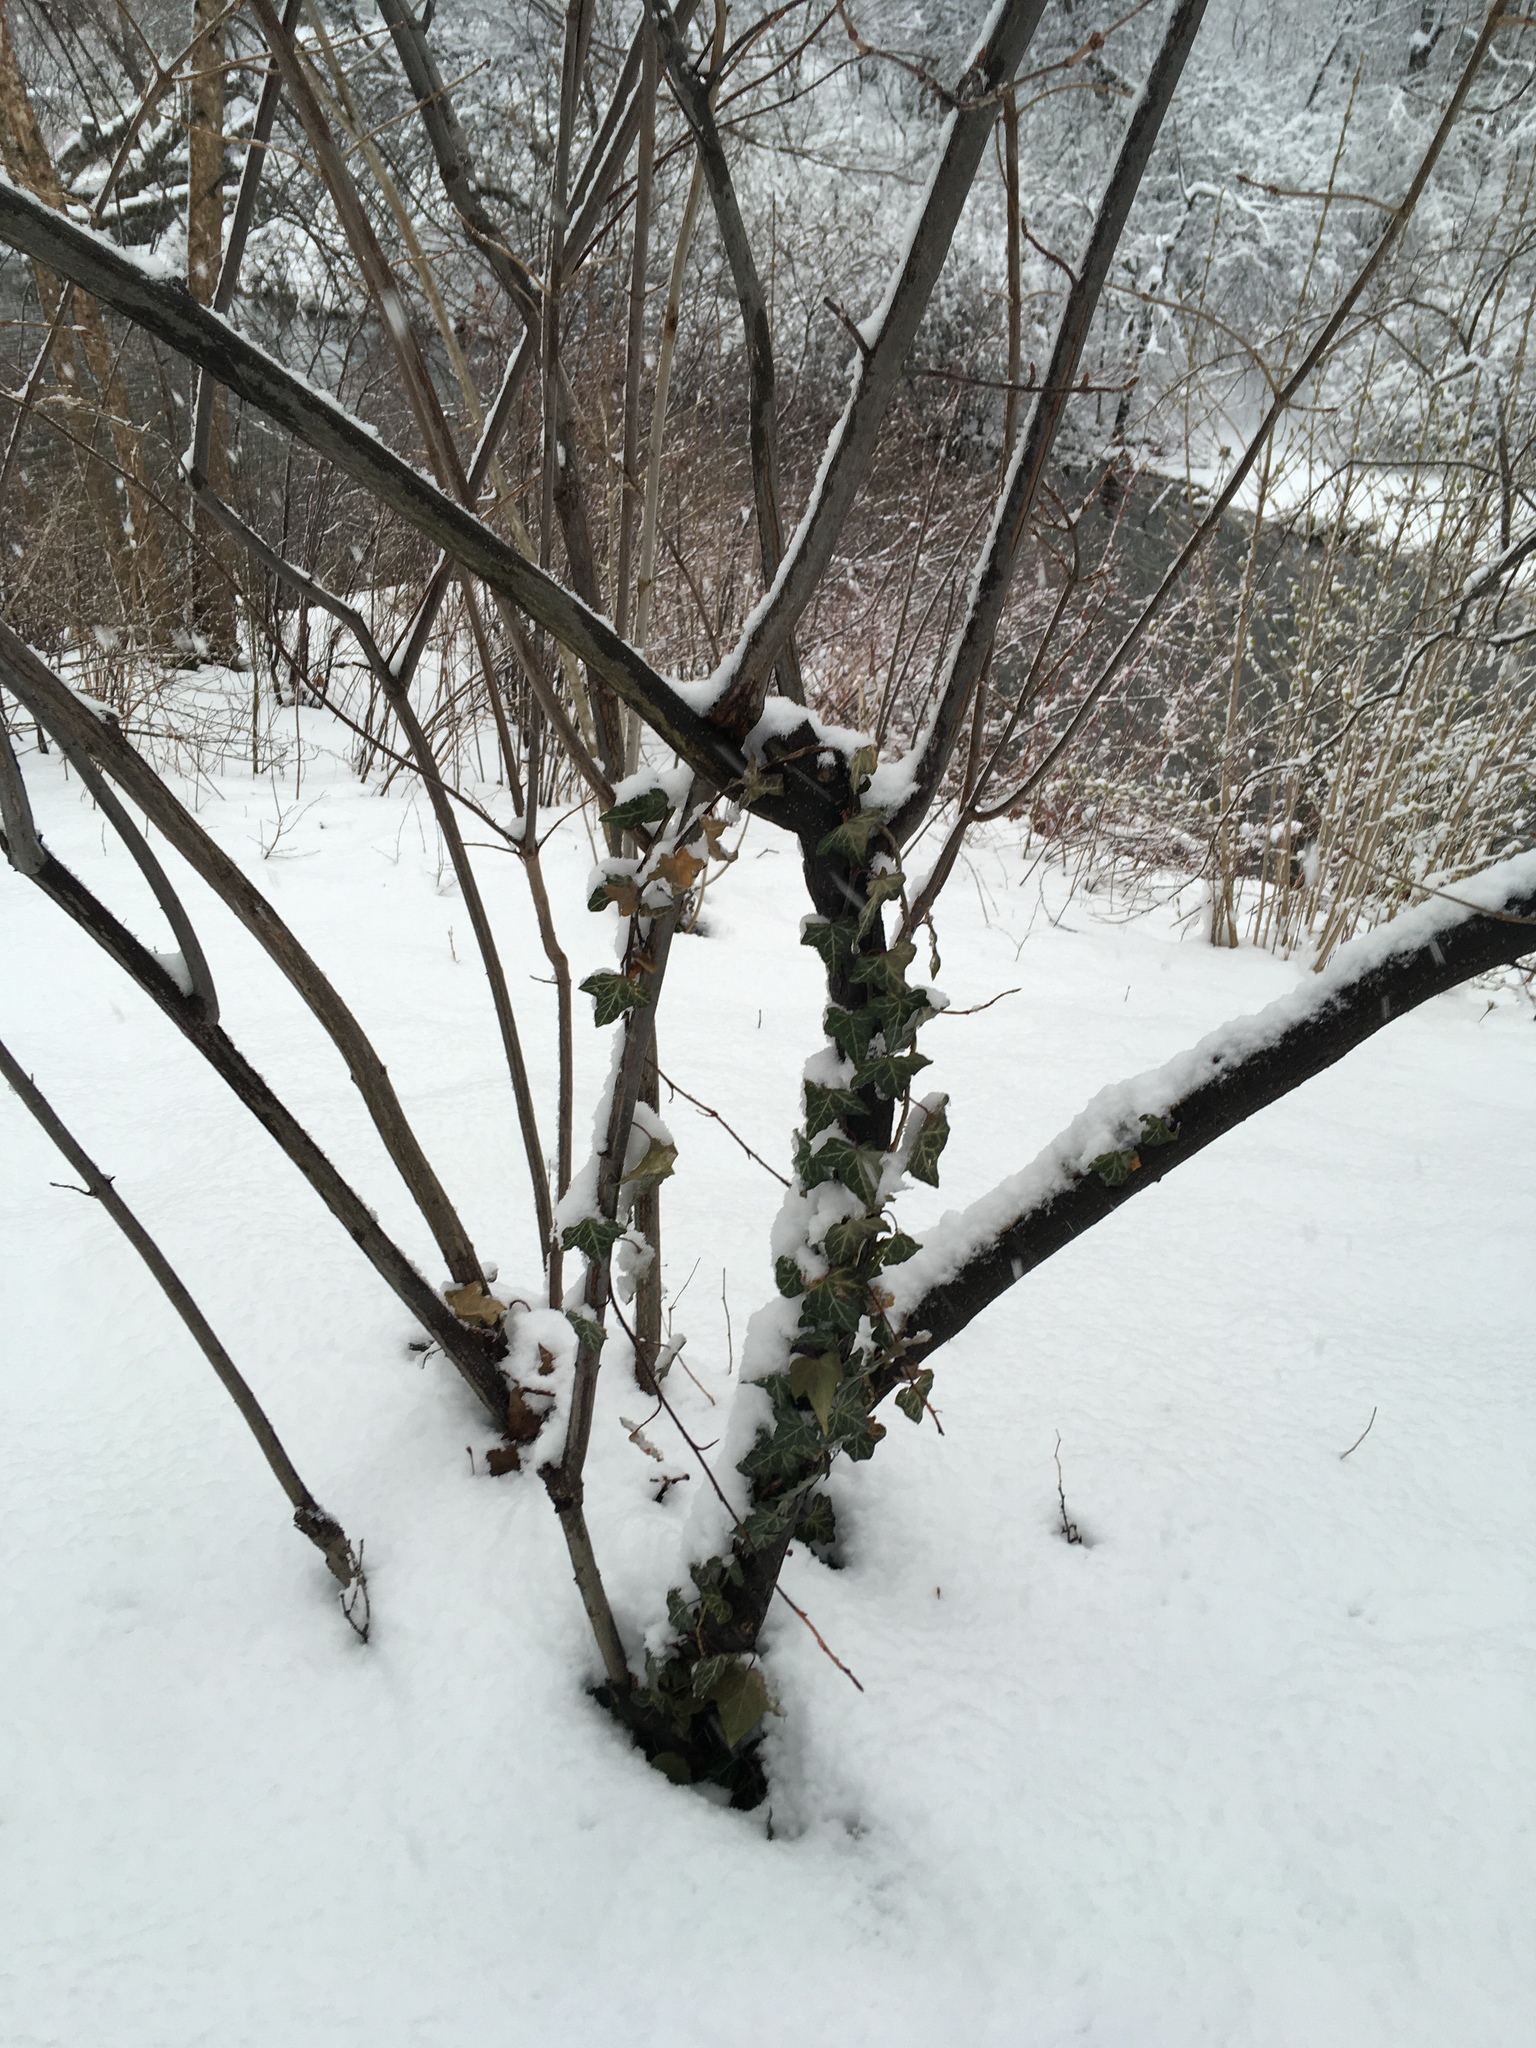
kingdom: Plantae
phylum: Tracheophyta
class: Magnoliopsida
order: Apiales
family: Araliaceae
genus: Hedera
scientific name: Hedera
